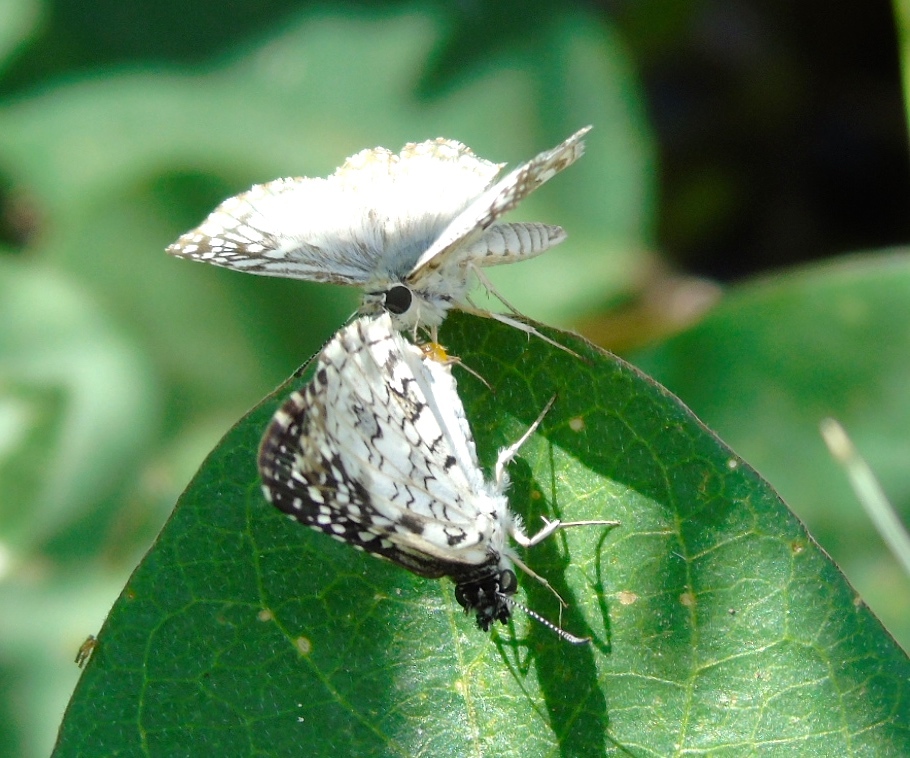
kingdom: Animalia
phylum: Arthropoda
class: Insecta
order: Lepidoptera
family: Hesperiidae
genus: Pyrgus
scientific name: Pyrgus oileus
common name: Tropical checkered-skipper
